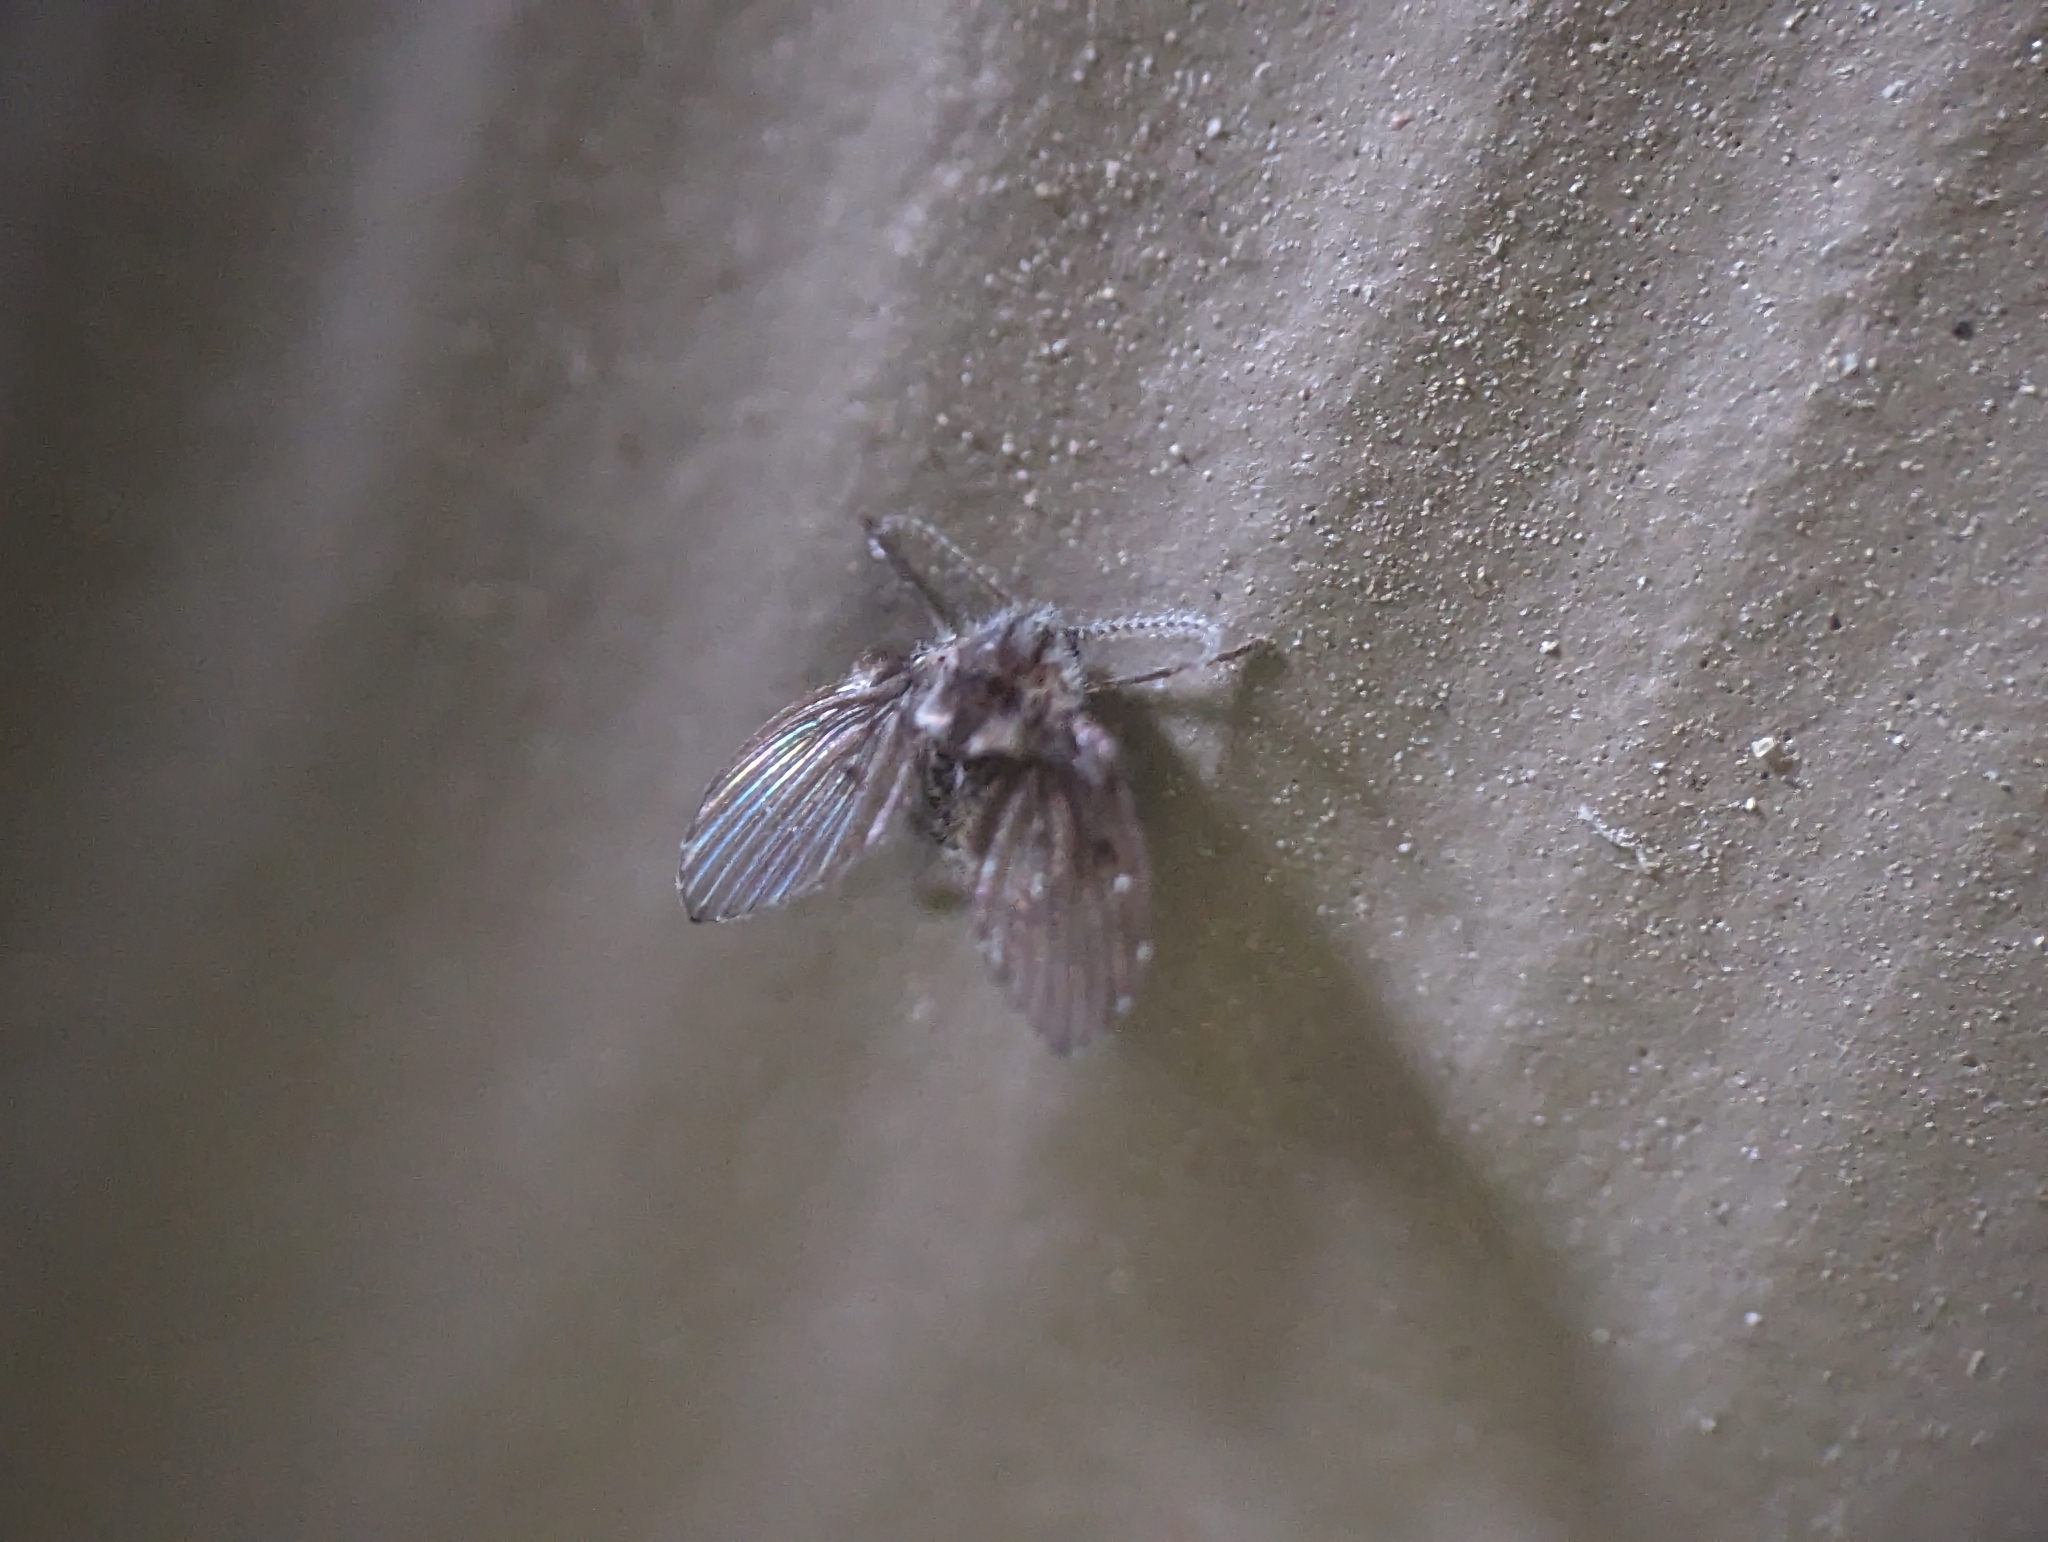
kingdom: Animalia
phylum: Arthropoda
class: Insecta
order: Diptera
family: Psychodidae
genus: Clogmia
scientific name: Clogmia albipunctatus
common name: White-spotted moth fly
